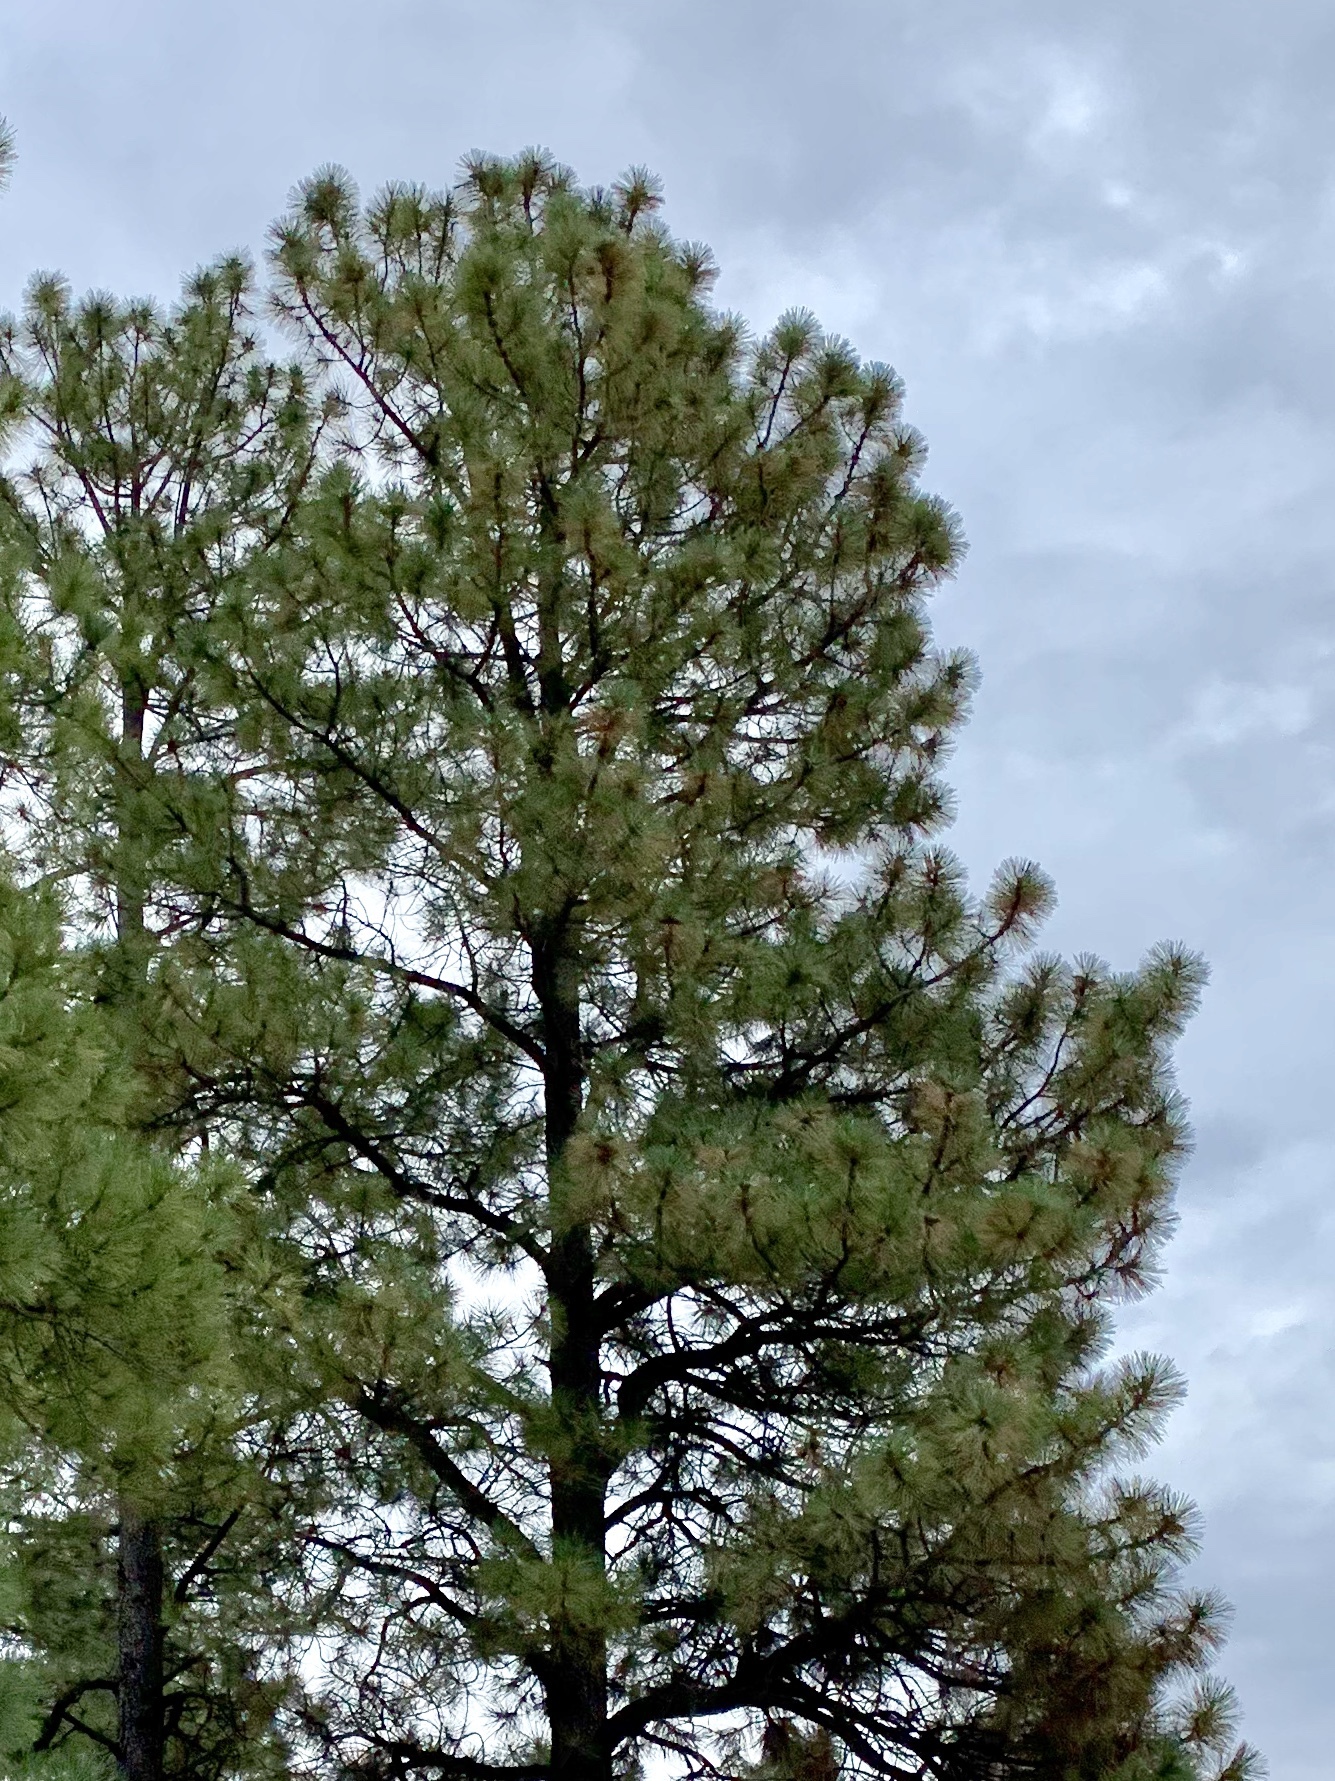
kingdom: Plantae
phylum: Tracheophyta
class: Pinopsida
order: Pinales
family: Pinaceae
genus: Pinus
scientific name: Pinus ponderosa
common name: Western yellow-pine
